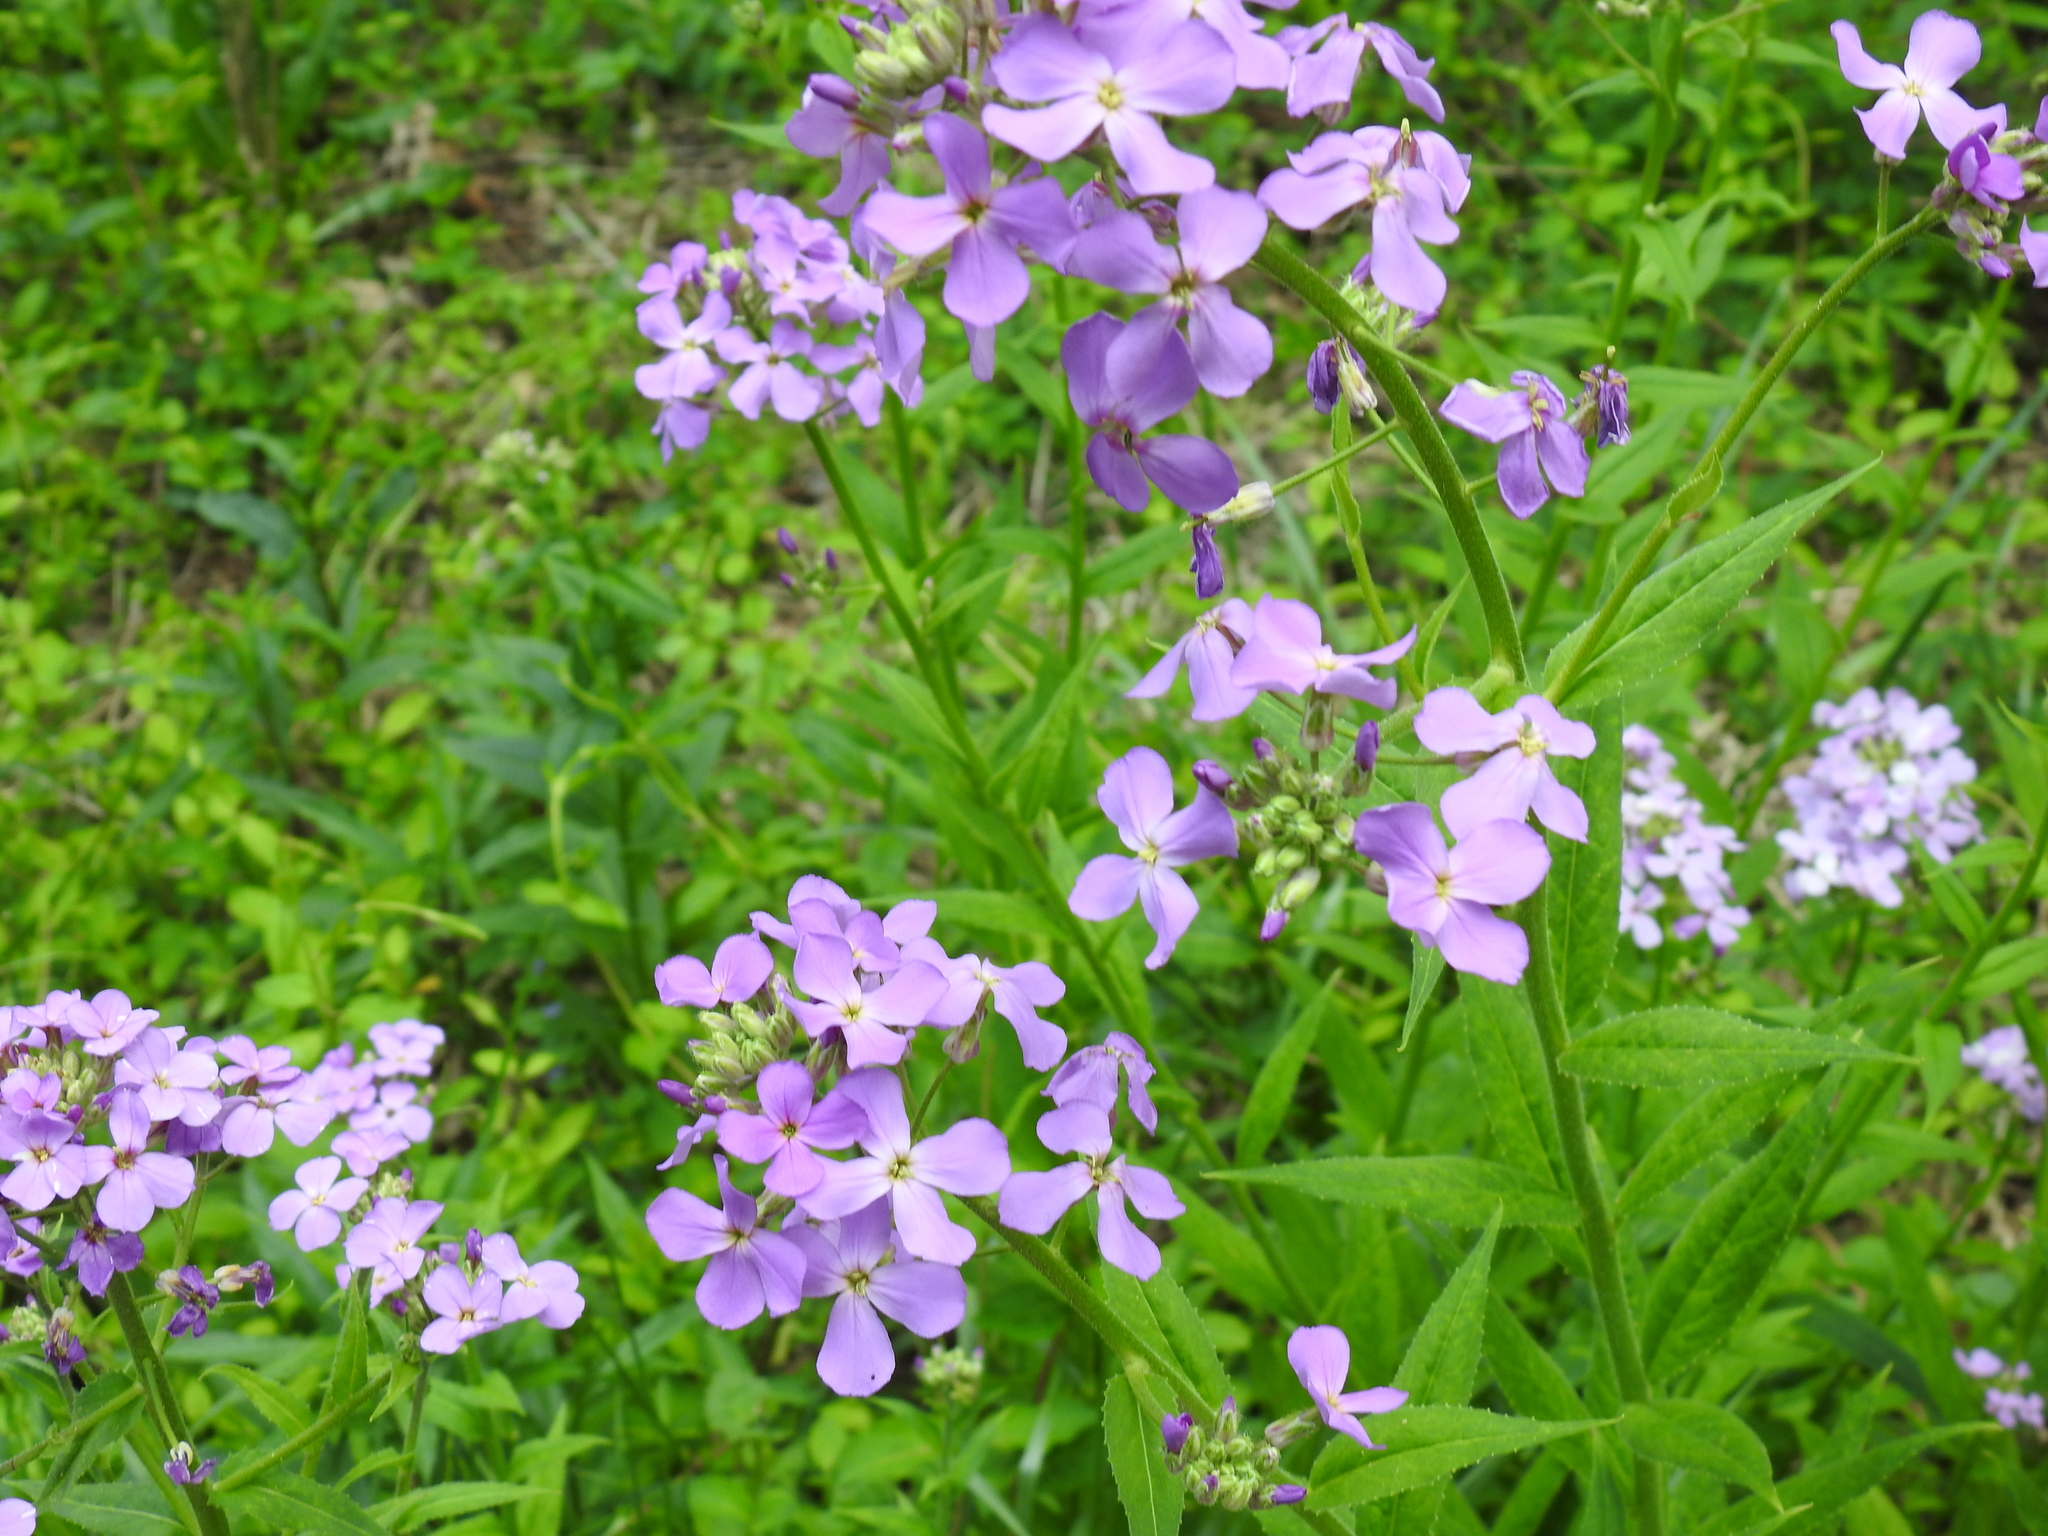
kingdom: Plantae
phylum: Tracheophyta
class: Magnoliopsida
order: Brassicales
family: Brassicaceae
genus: Hesperis
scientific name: Hesperis matronalis
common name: Dame's-violet
